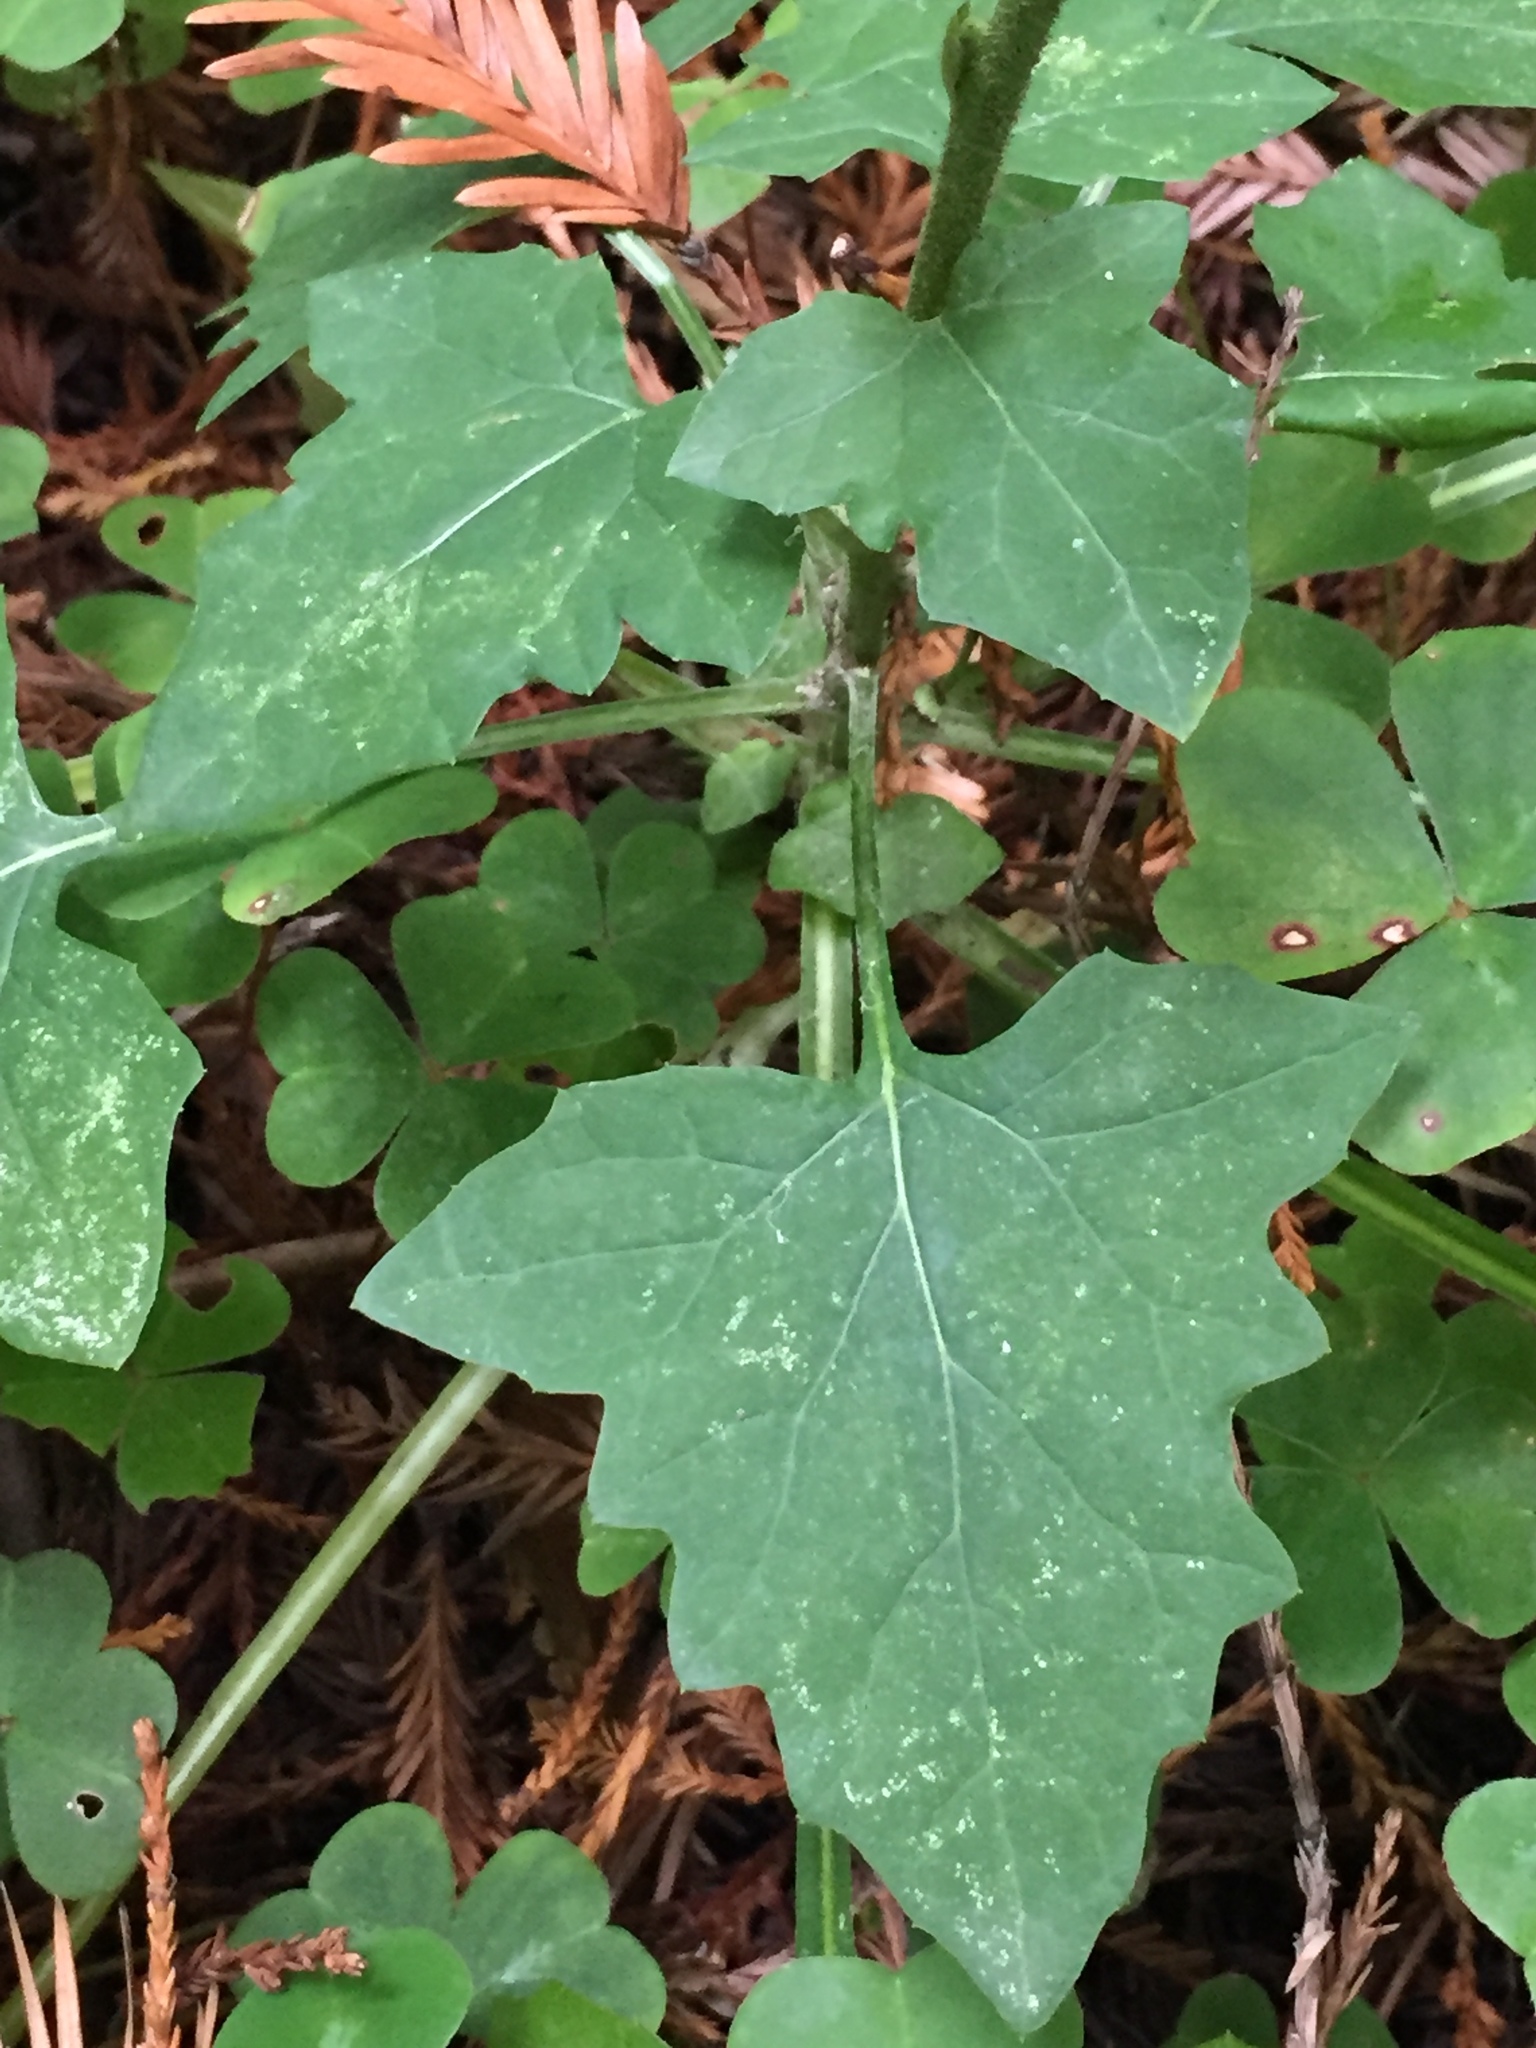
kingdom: Plantae
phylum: Tracheophyta
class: Magnoliopsida
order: Asterales
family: Asteraceae
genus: Adenocaulon
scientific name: Adenocaulon bicolor
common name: Trailplant
